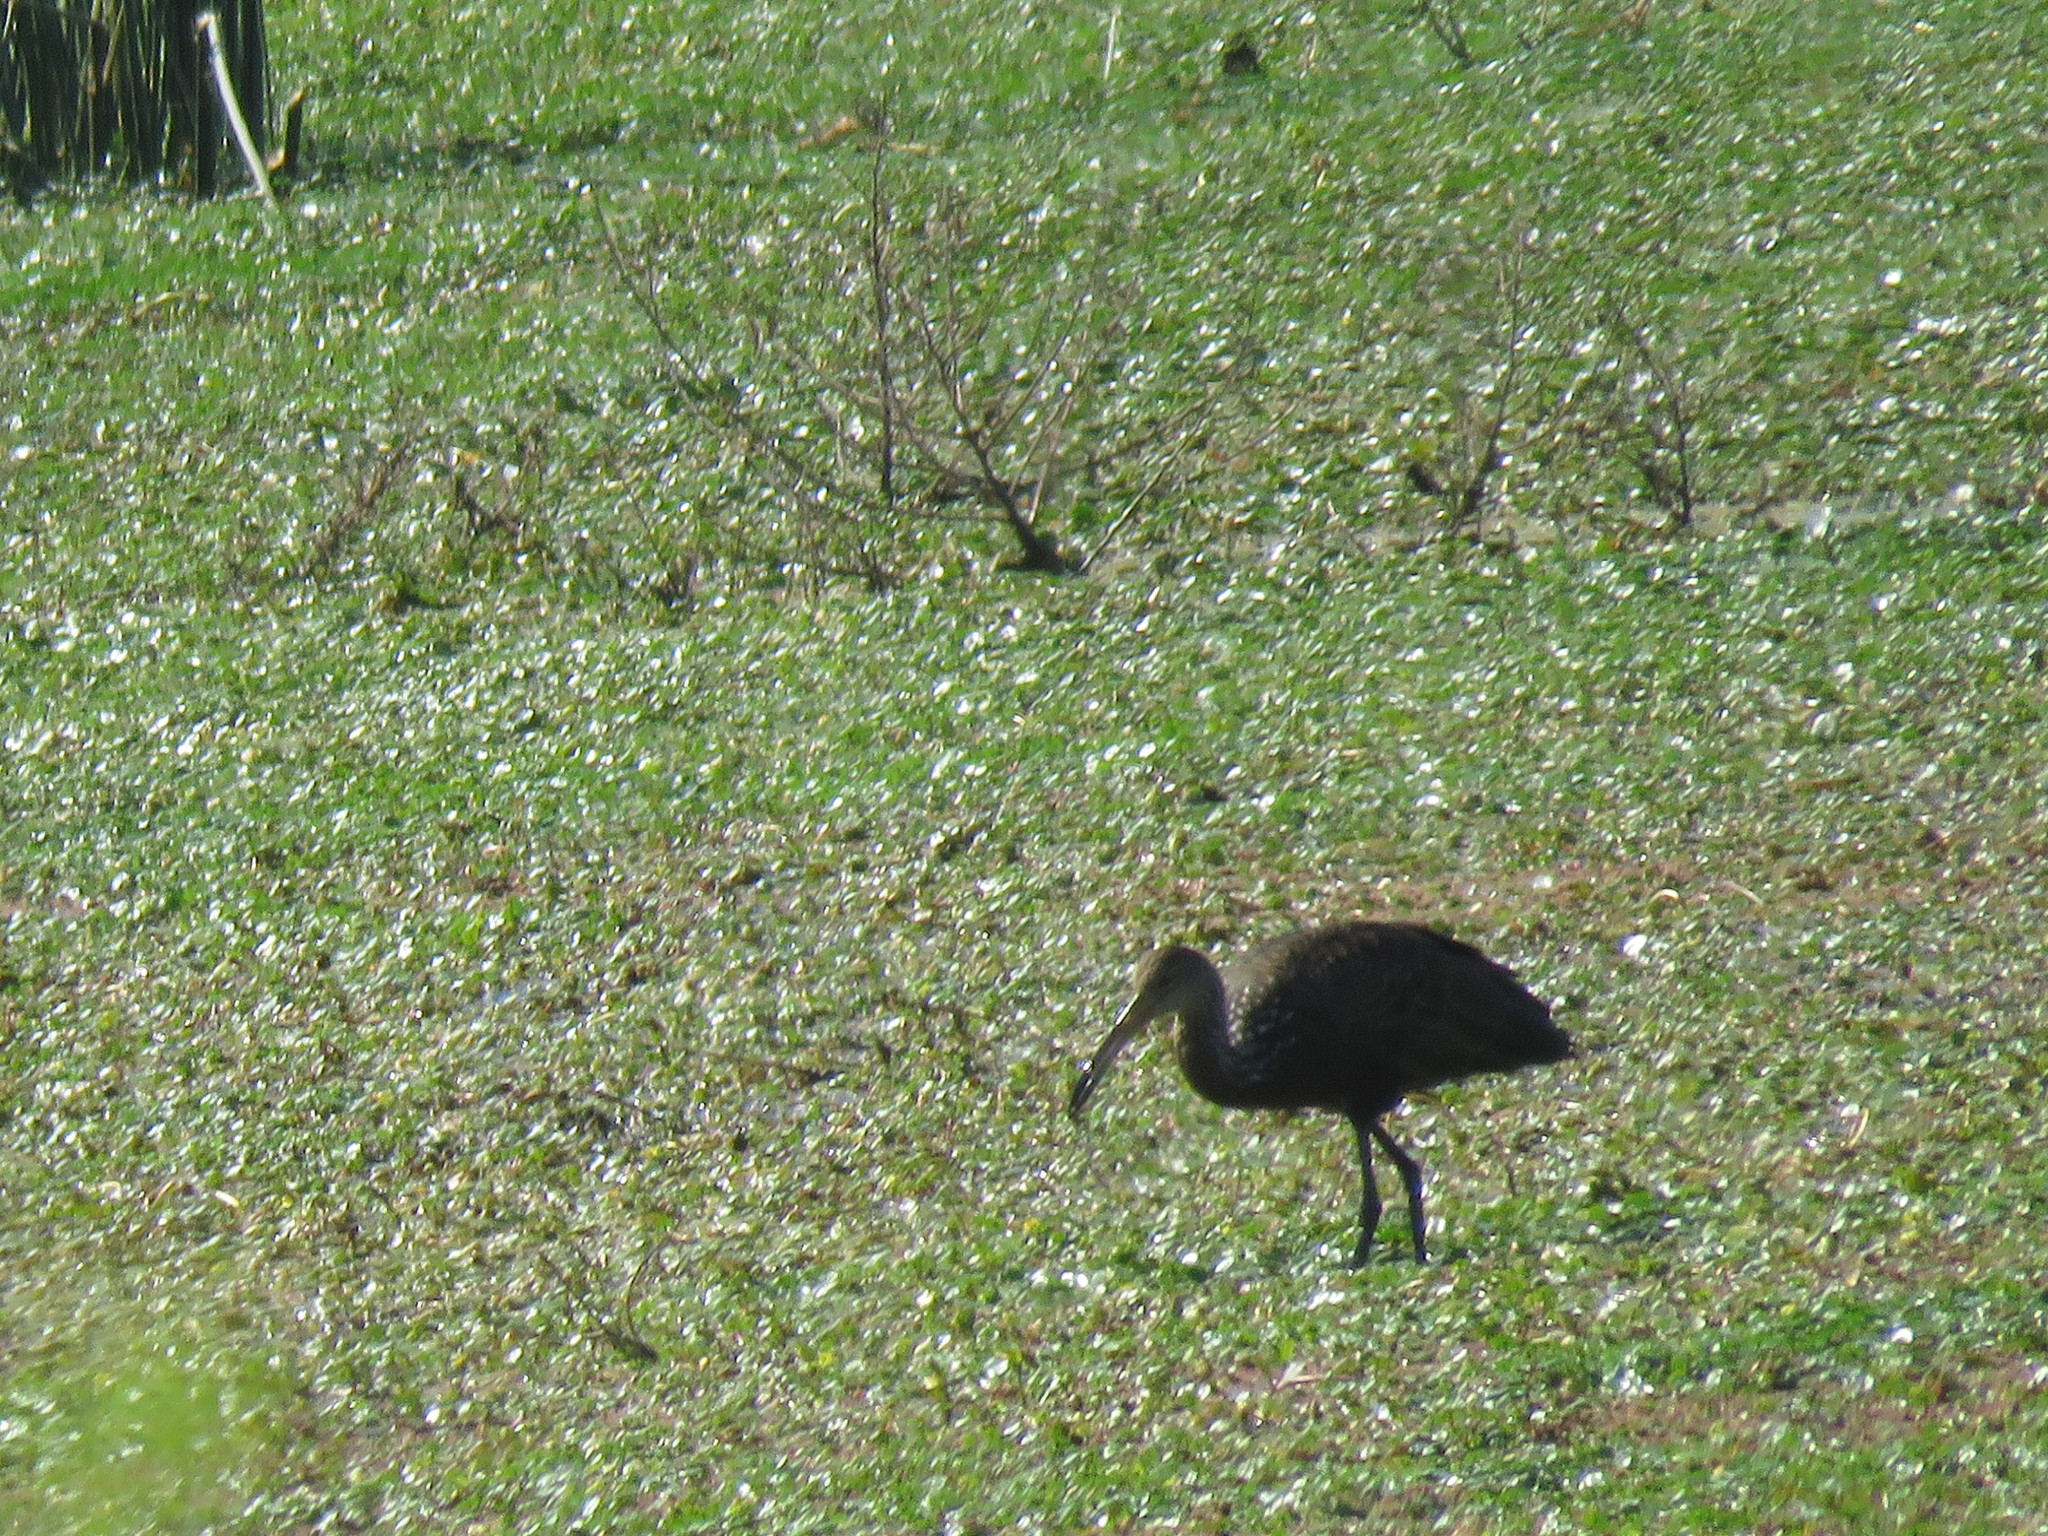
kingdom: Animalia
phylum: Chordata
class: Aves
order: Gruiformes
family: Aramidae
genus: Aramus
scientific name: Aramus guarauna
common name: Limpkin
